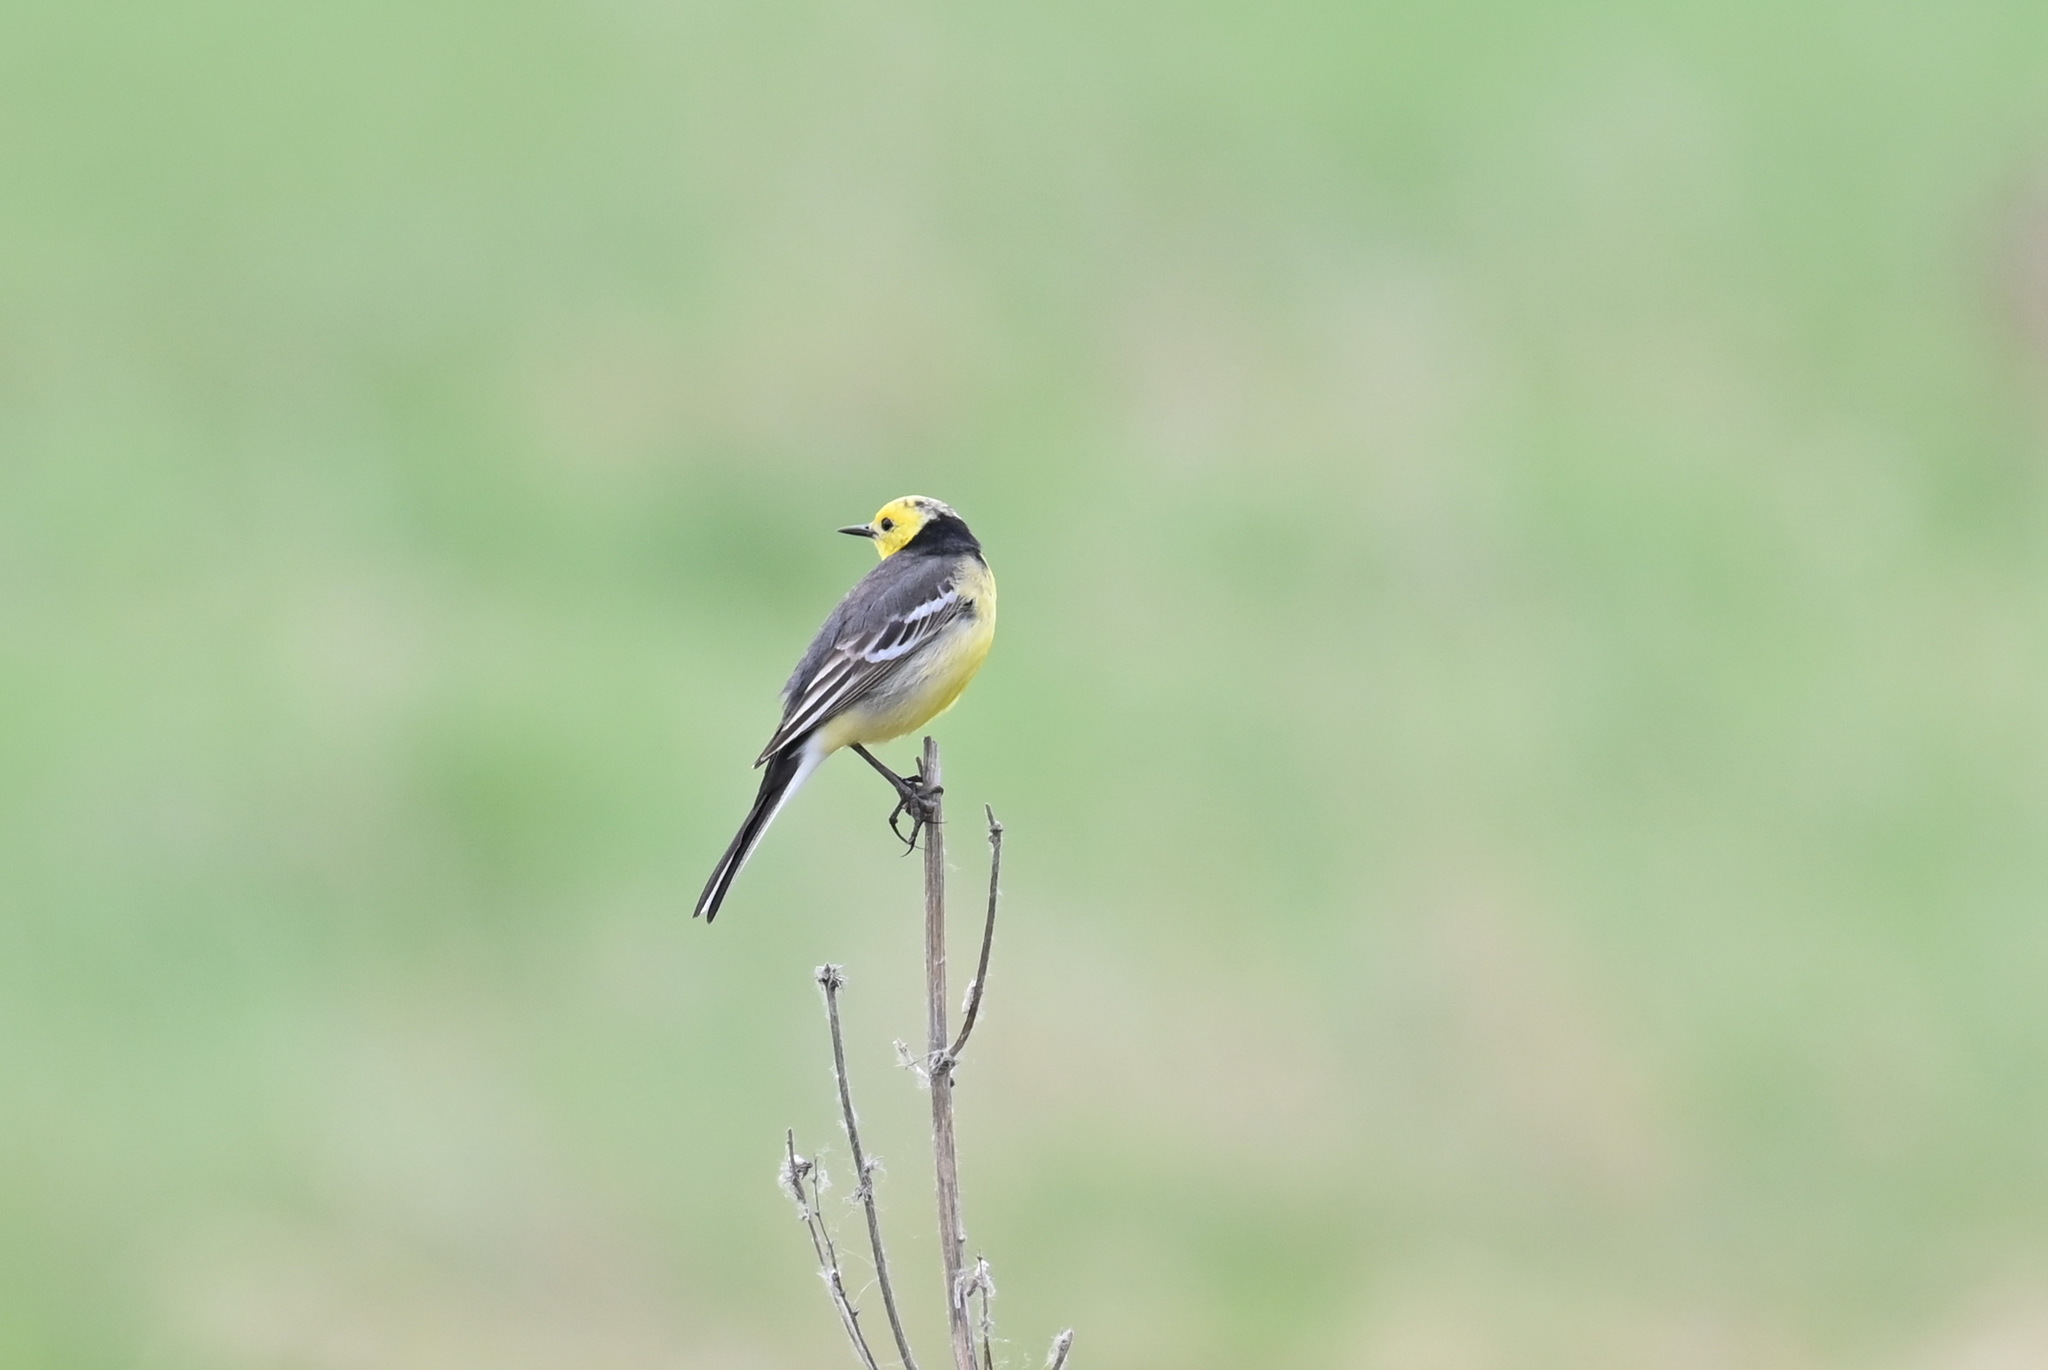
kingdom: Animalia
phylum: Chordata
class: Aves
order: Passeriformes
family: Motacillidae
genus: Motacilla
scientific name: Motacilla citreola
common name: Citrine wagtail
